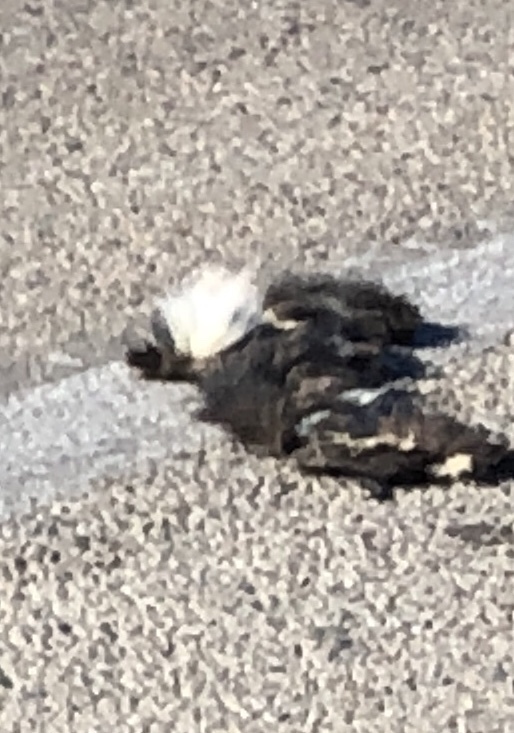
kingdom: Animalia
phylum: Chordata
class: Mammalia
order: Carnivora
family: Mephitidae
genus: Mephitis
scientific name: Mephitis mephitis
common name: Striped skunk
